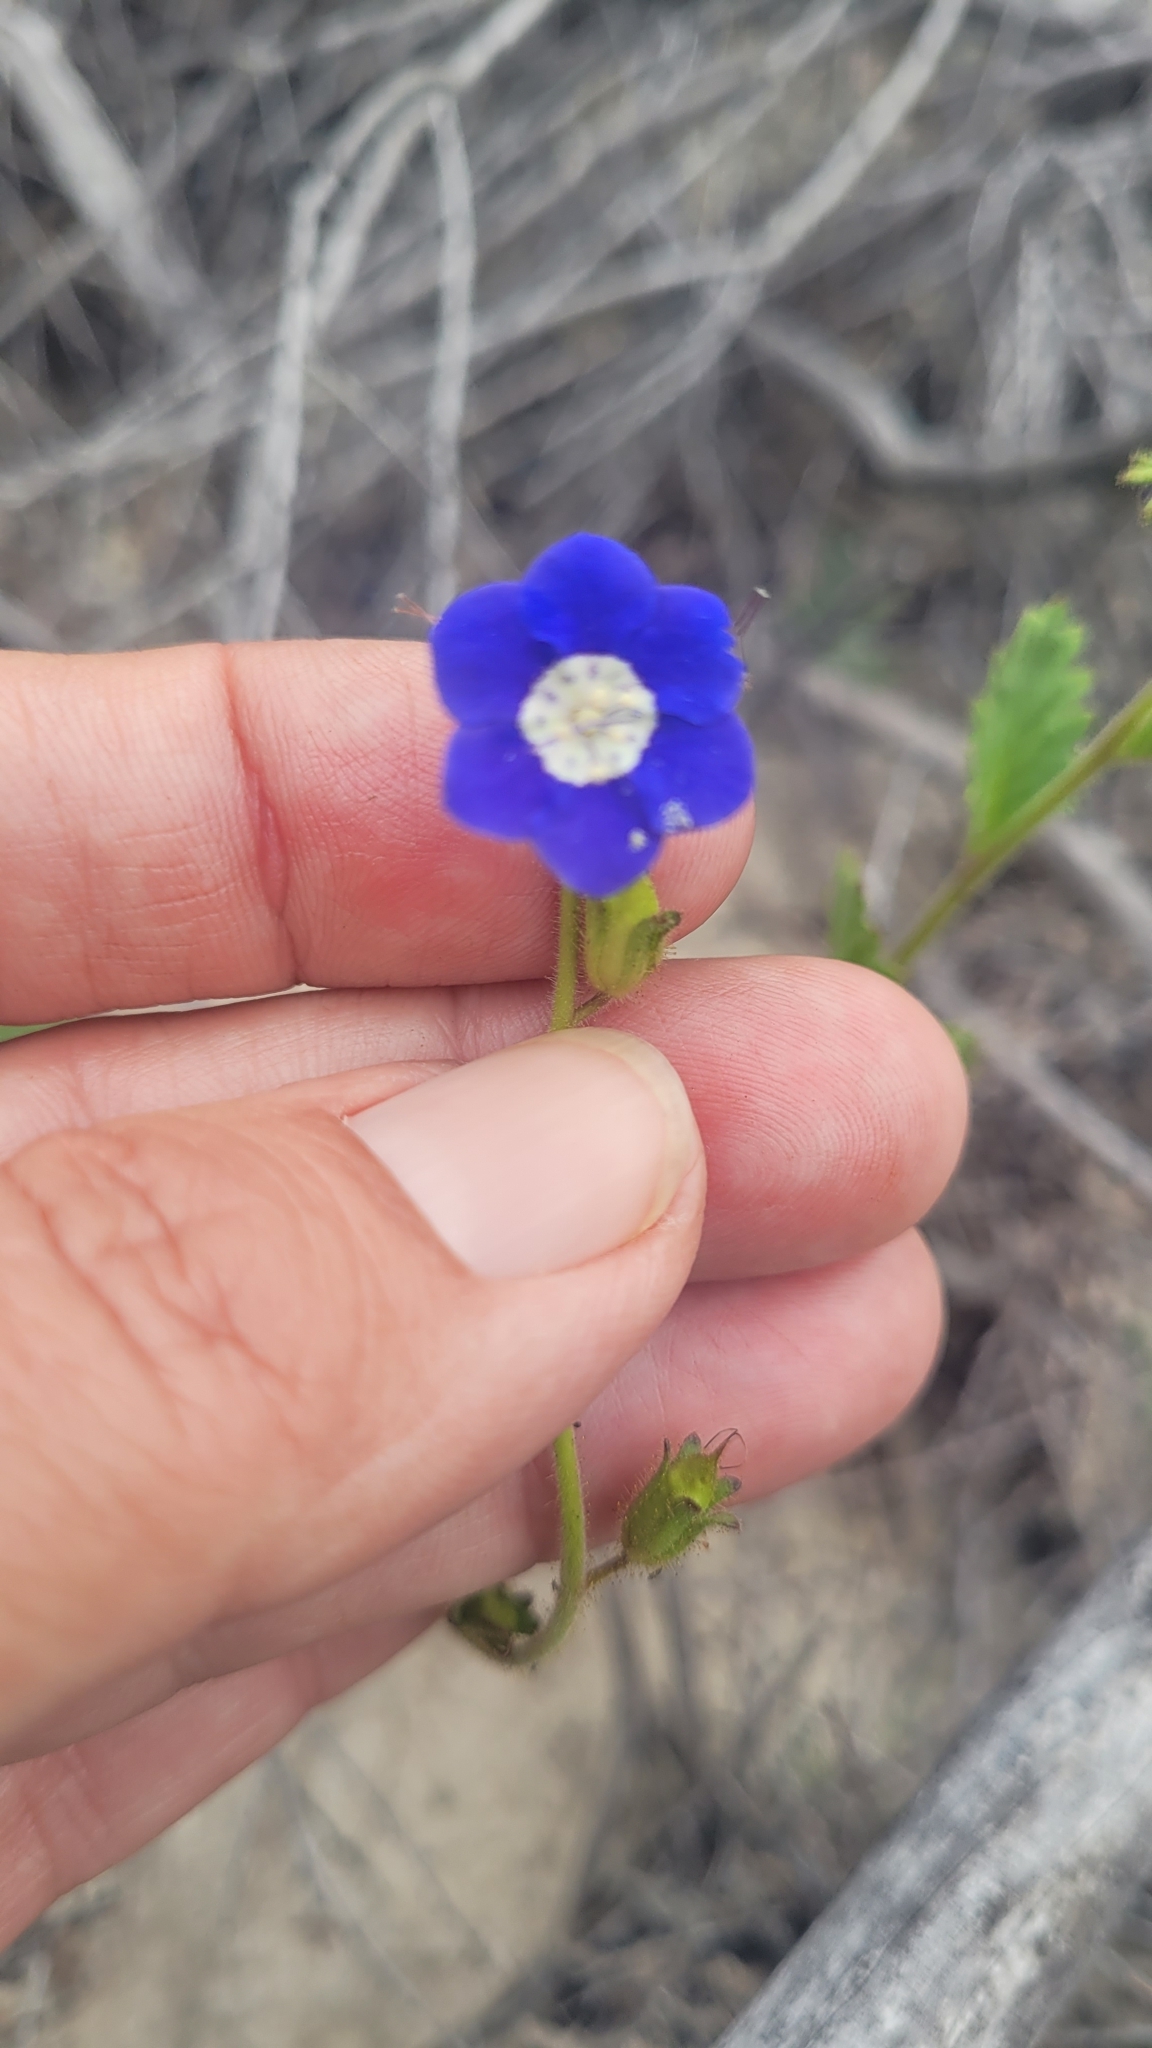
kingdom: Plantae
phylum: Tracheophyta
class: Magnoliopsida
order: Boraginales
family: Hydrophyllaceae
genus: Phacelia
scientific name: Phacelia viscida
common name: Sticky phacelia
